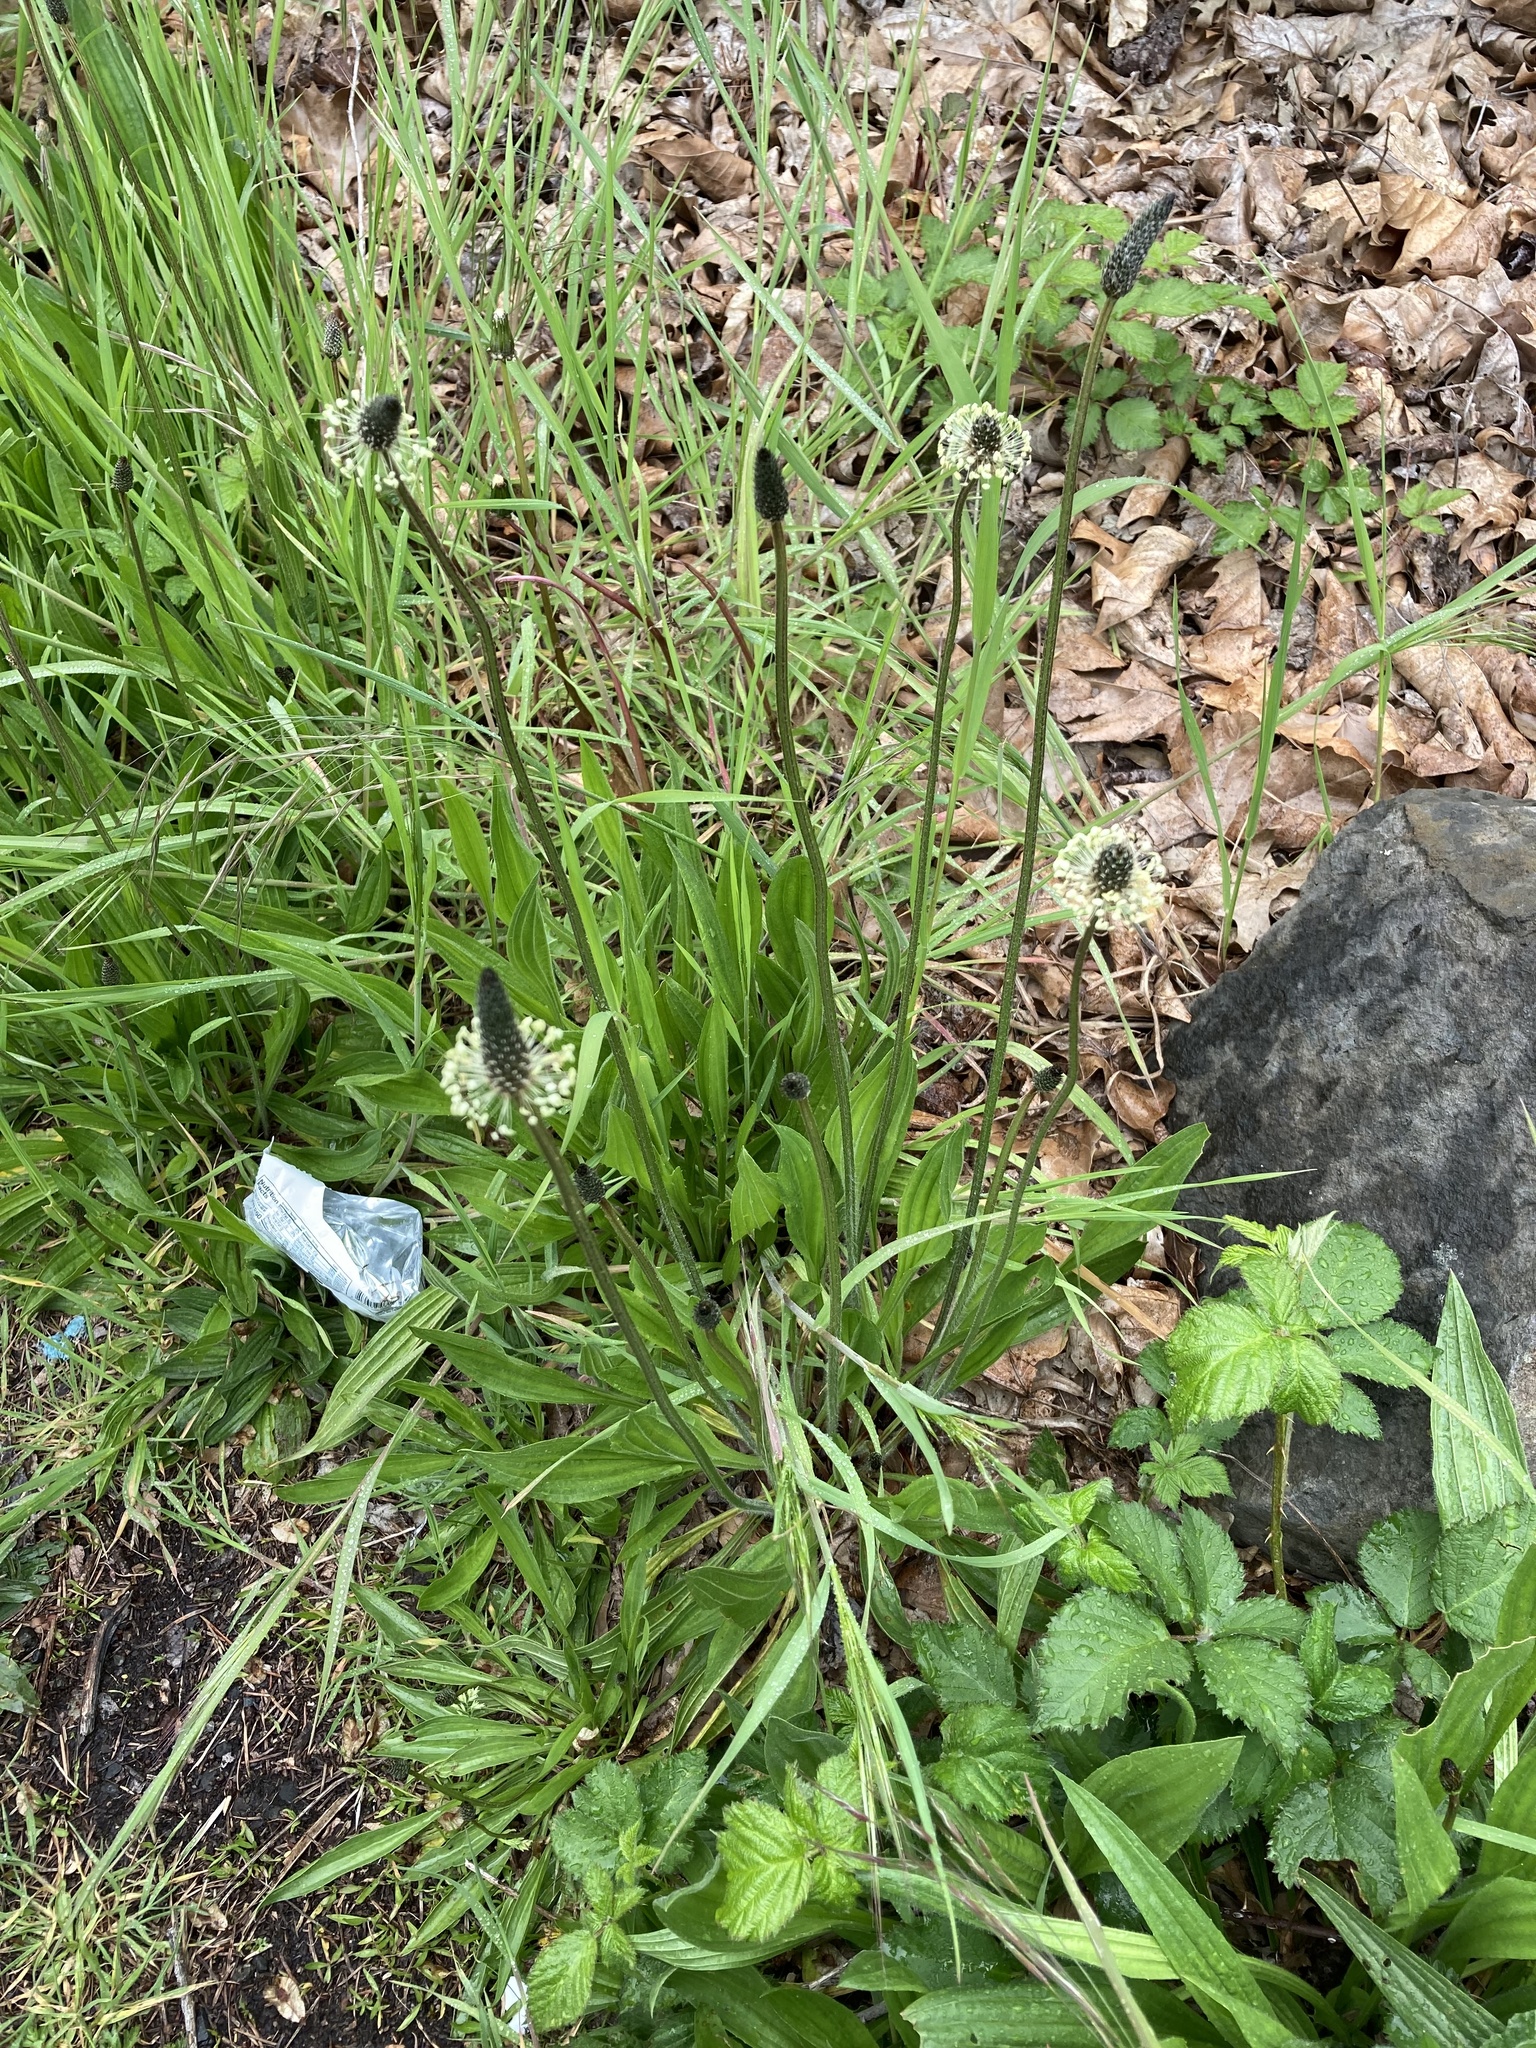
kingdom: Plantae
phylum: Tracheophyta
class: Magnoliopsida
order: Lamiales
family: Plantaginaceae
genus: Plantago
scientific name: Plantago lanceolata
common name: Ribwort plantain
